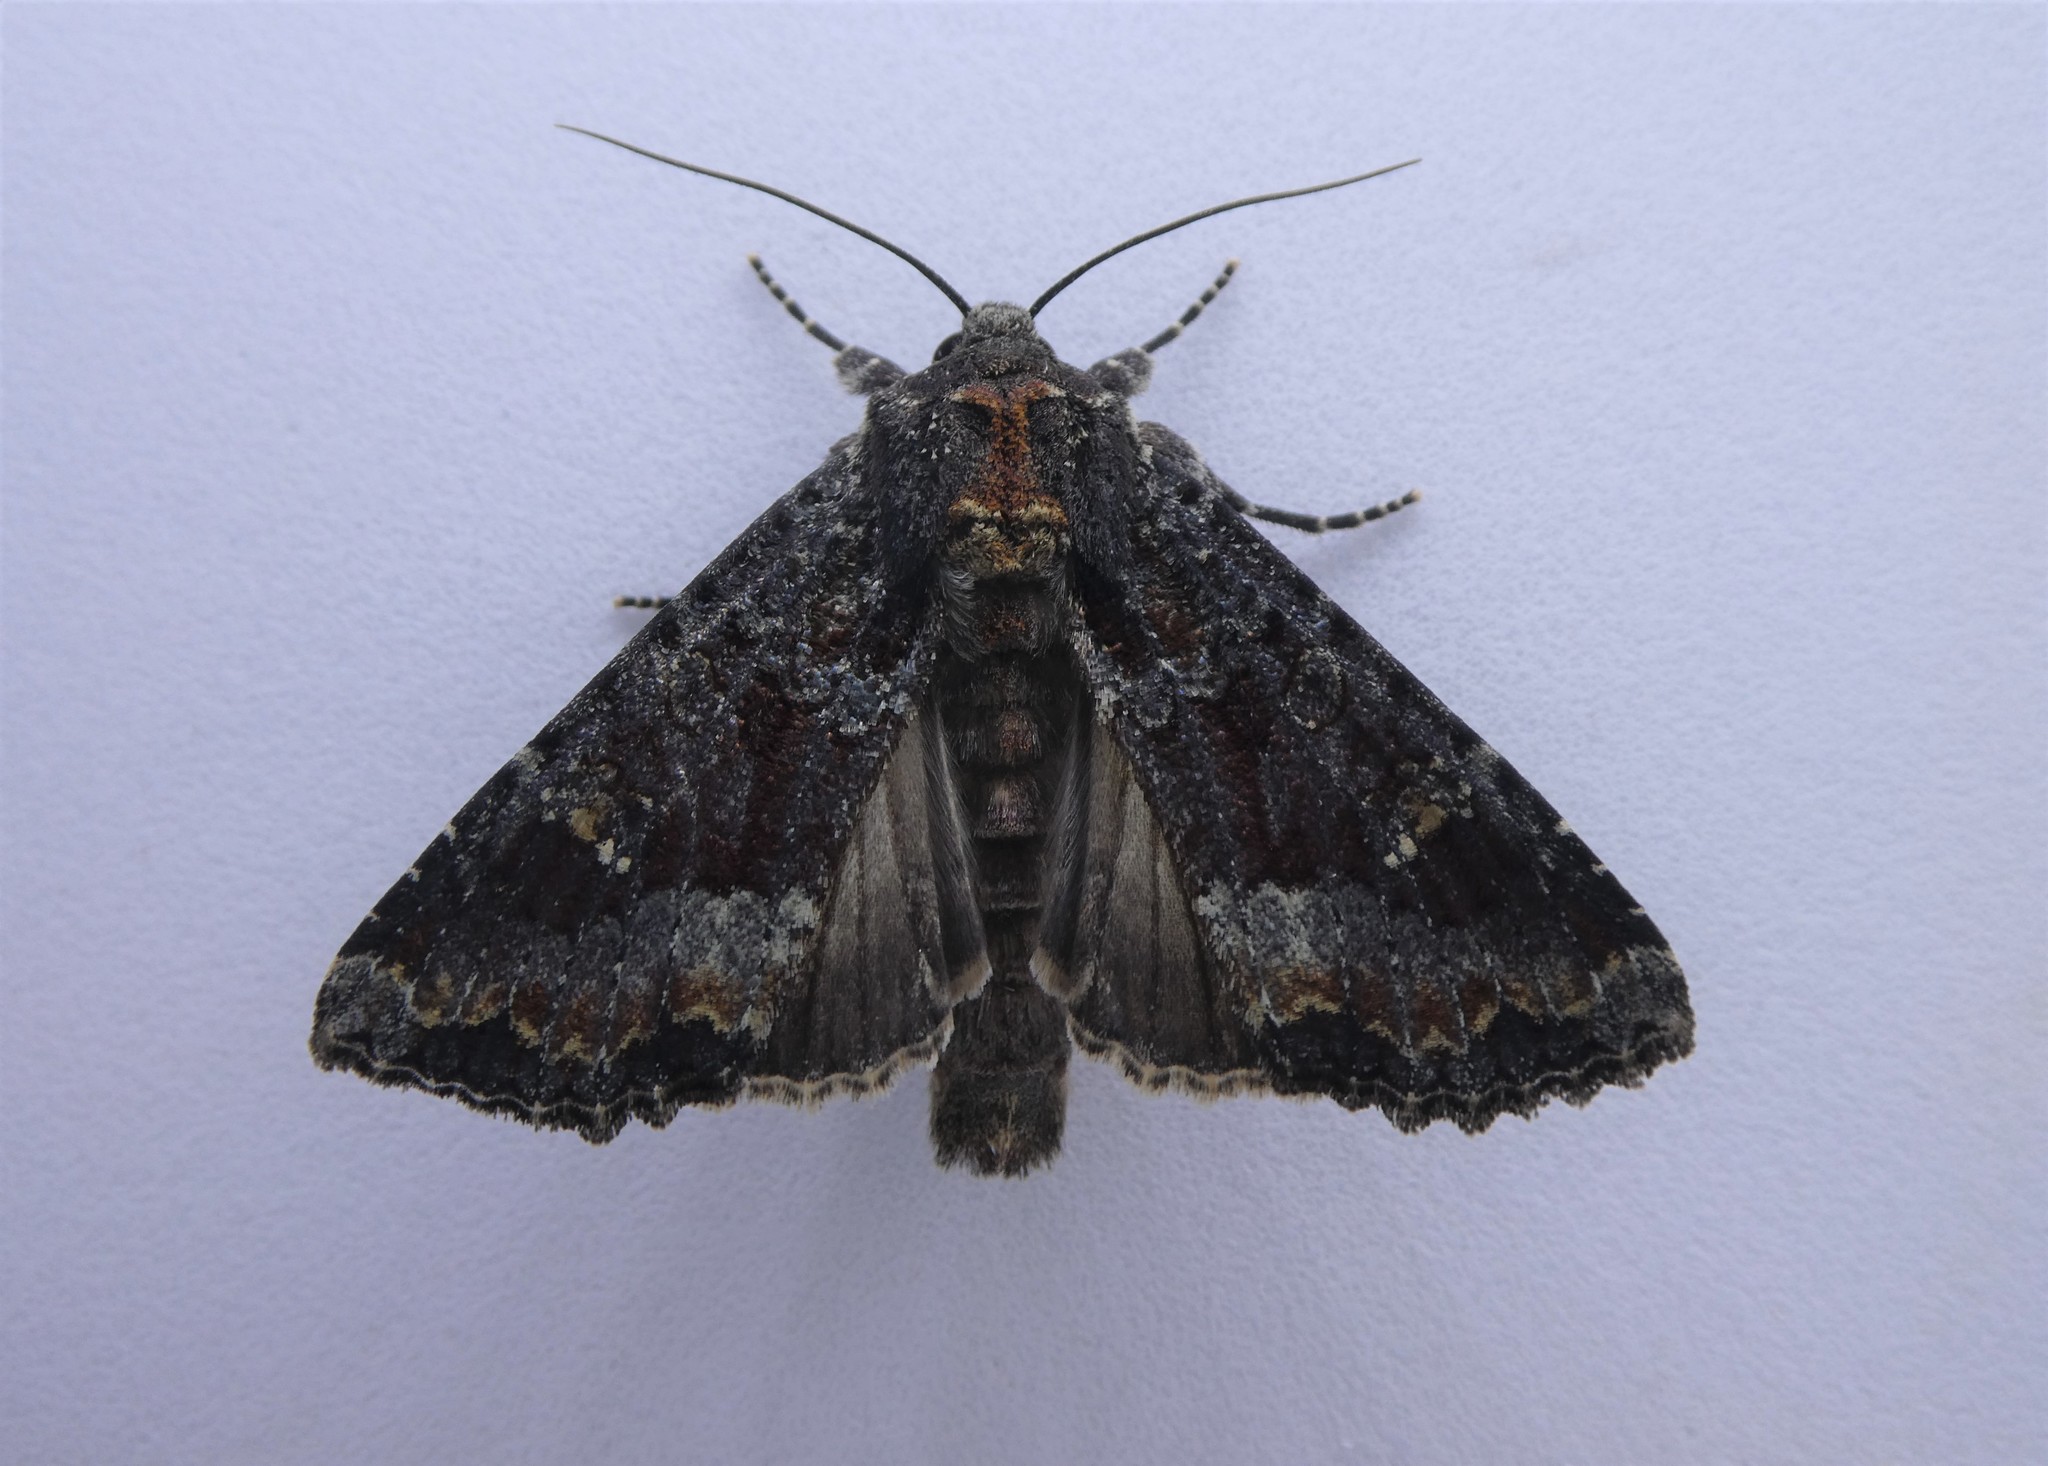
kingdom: Animalia
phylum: Arthropoda
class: Insecta
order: Lepidoptera
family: Noctuidae
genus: Apamea
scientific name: Apamea amputatrix
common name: Yellow-headed cutworm moth
